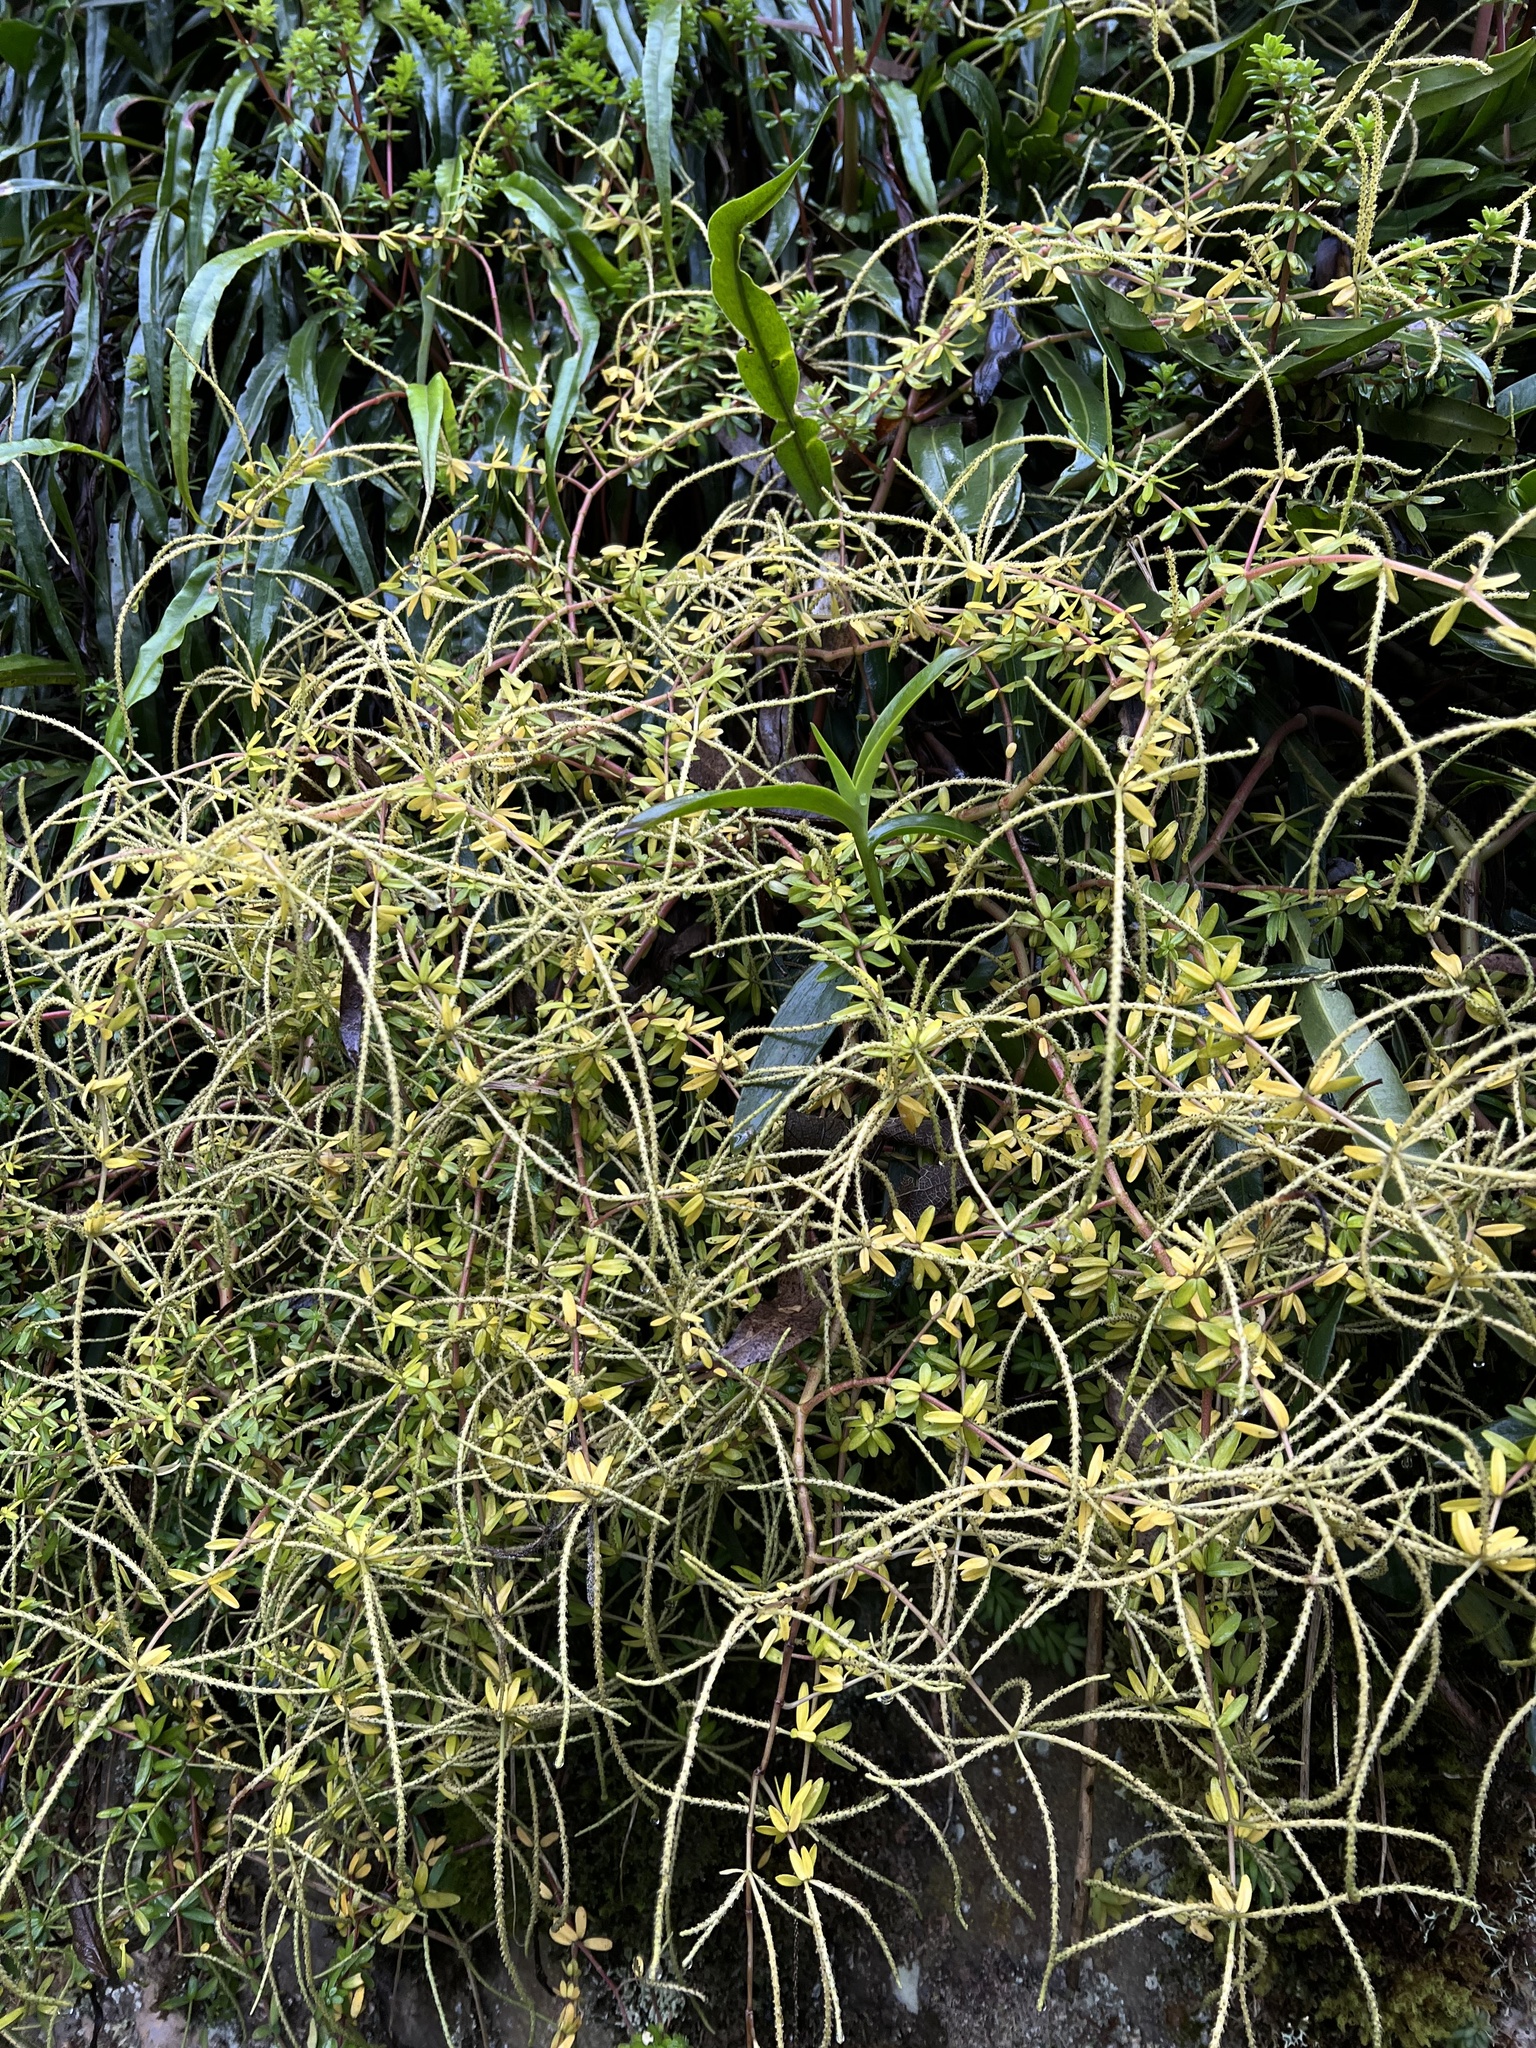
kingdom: Plantae
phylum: Tracheophyta
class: Magnoliopsida
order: Piperales
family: Piperaceae
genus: Peperomia
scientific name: Peperomia galioides
